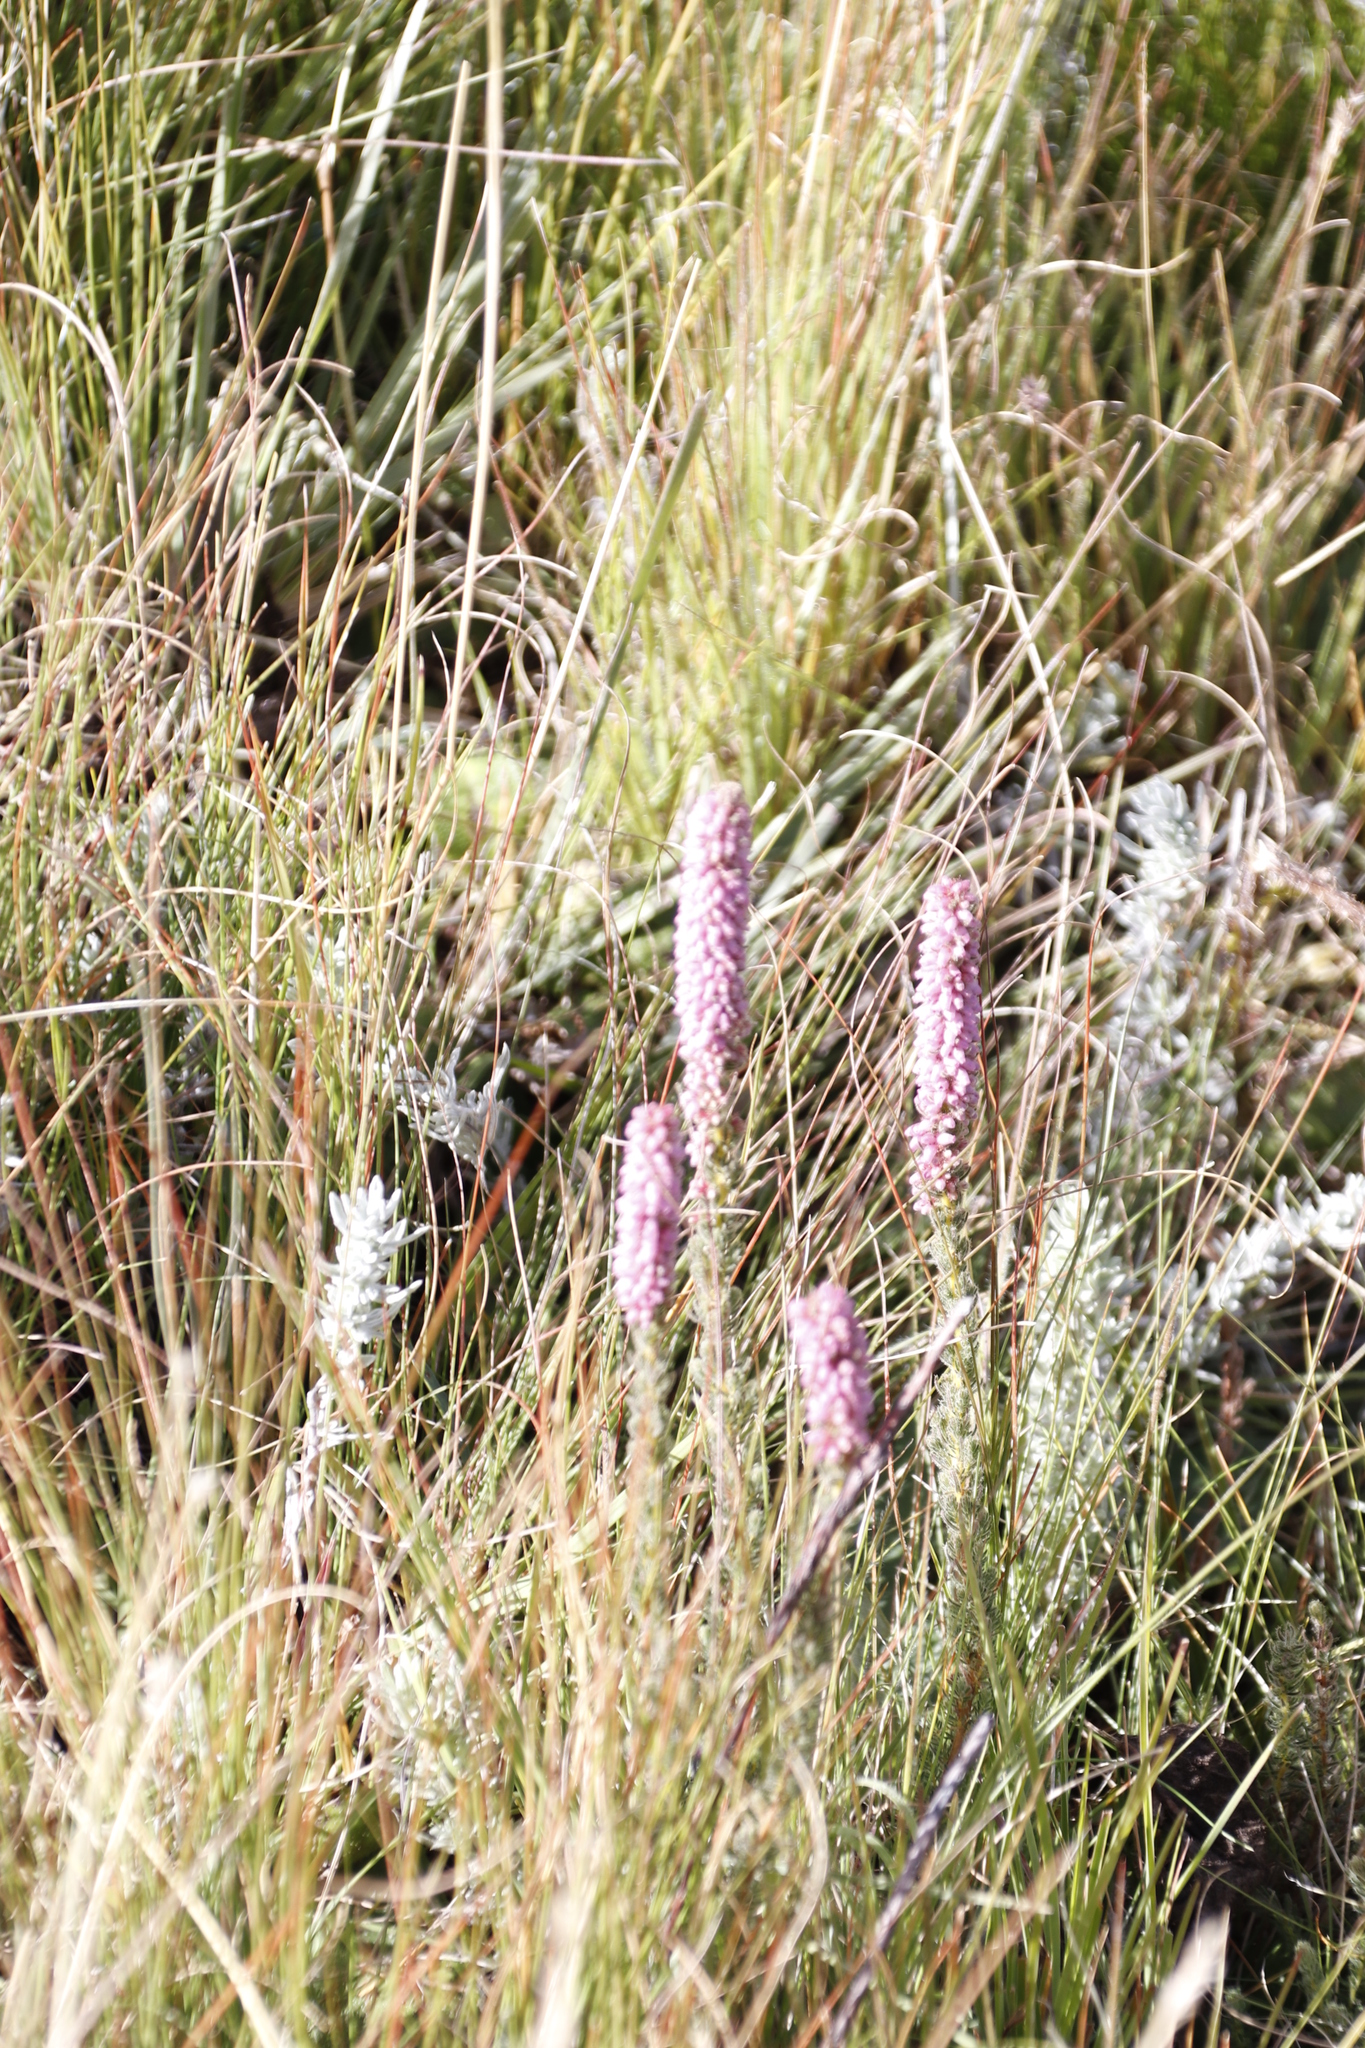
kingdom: Plantae
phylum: Tracheophyta
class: Magnoliopsida
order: Ericales
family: Ericaceae
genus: Erica
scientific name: Erica alopecurus
